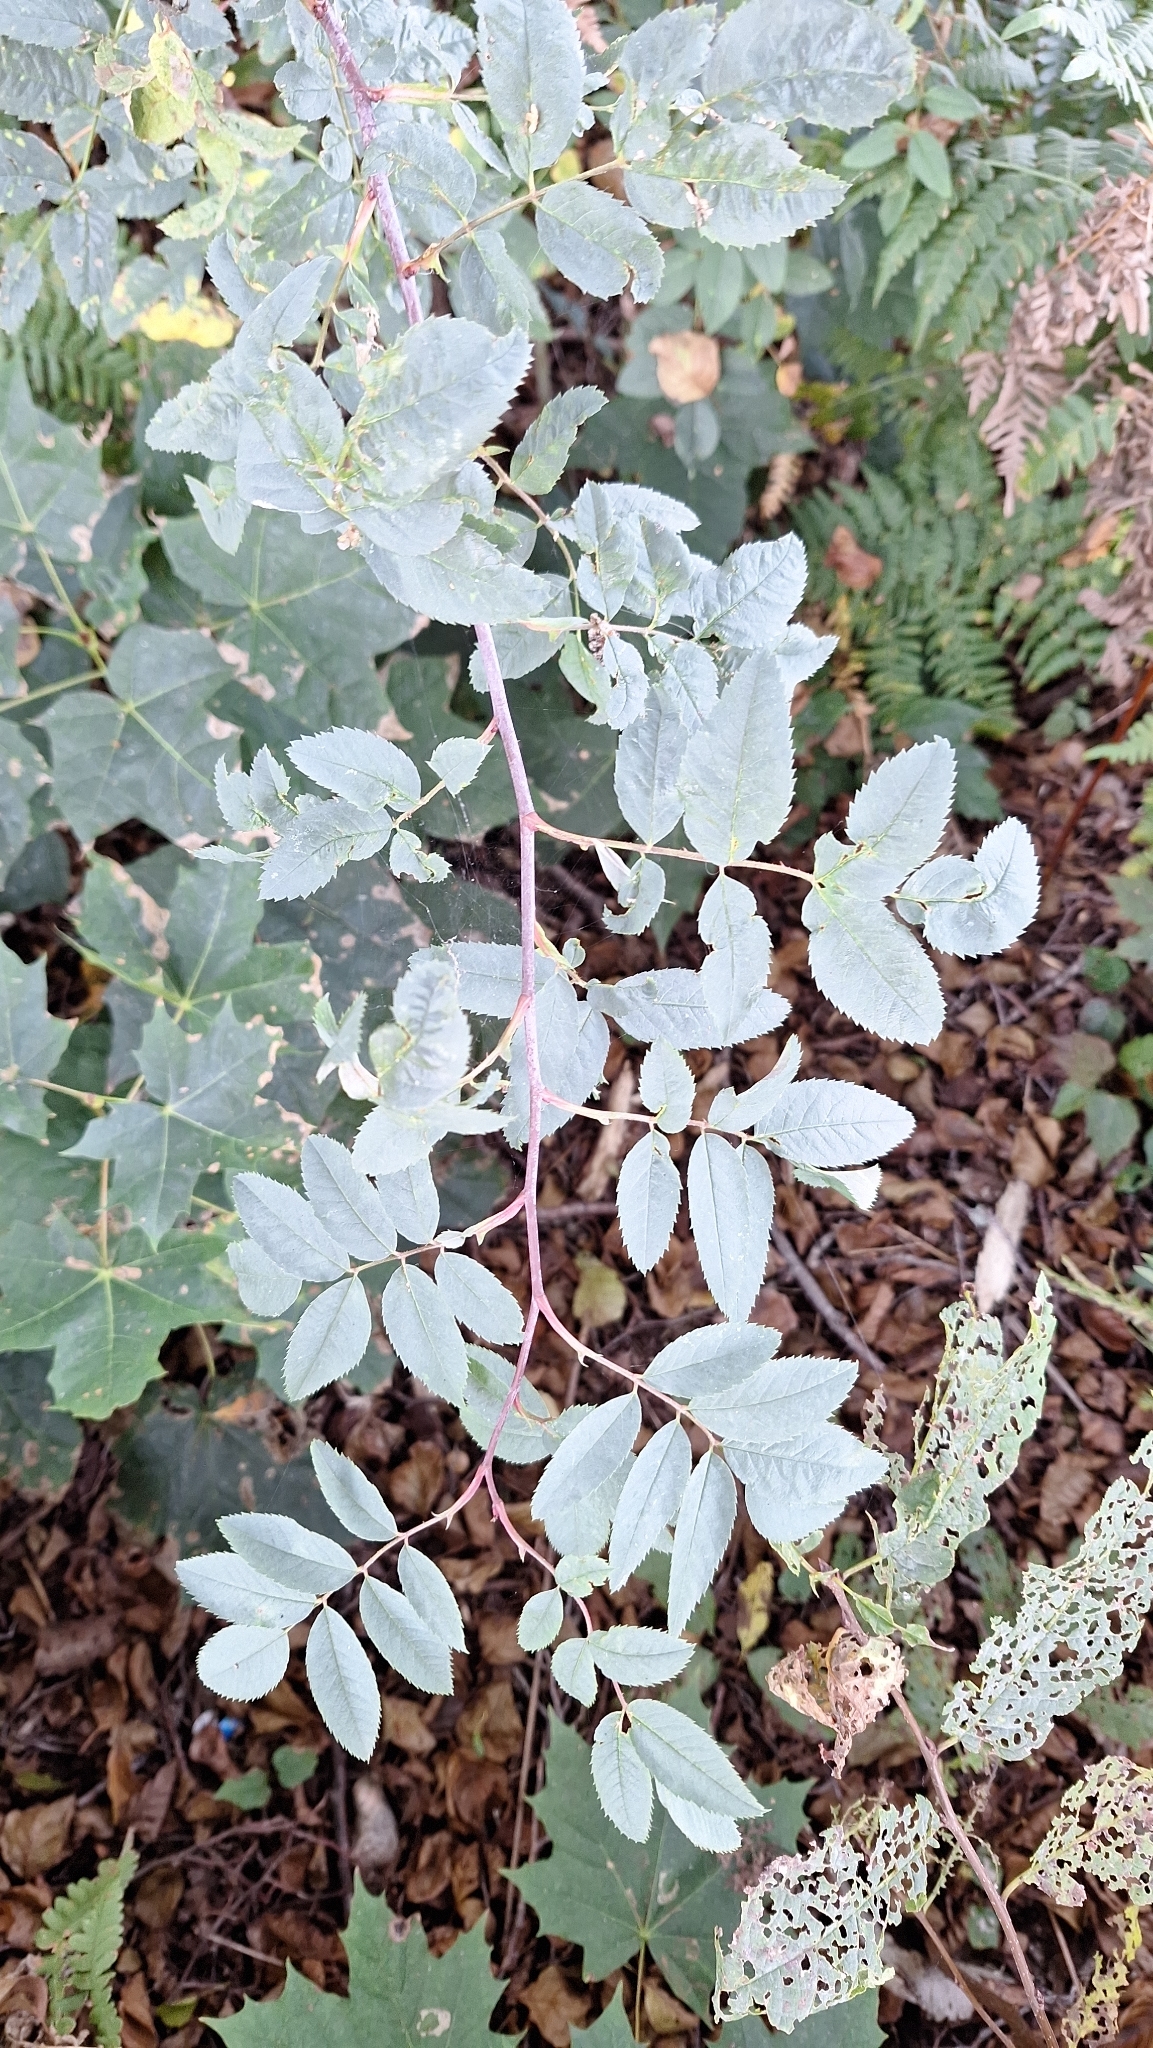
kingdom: Plantae
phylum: Tracheophyta
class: Magnoliopsida
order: Rosales
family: Rosaceae
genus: Rosa
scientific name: Rosa glauca
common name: Redleaf rose
